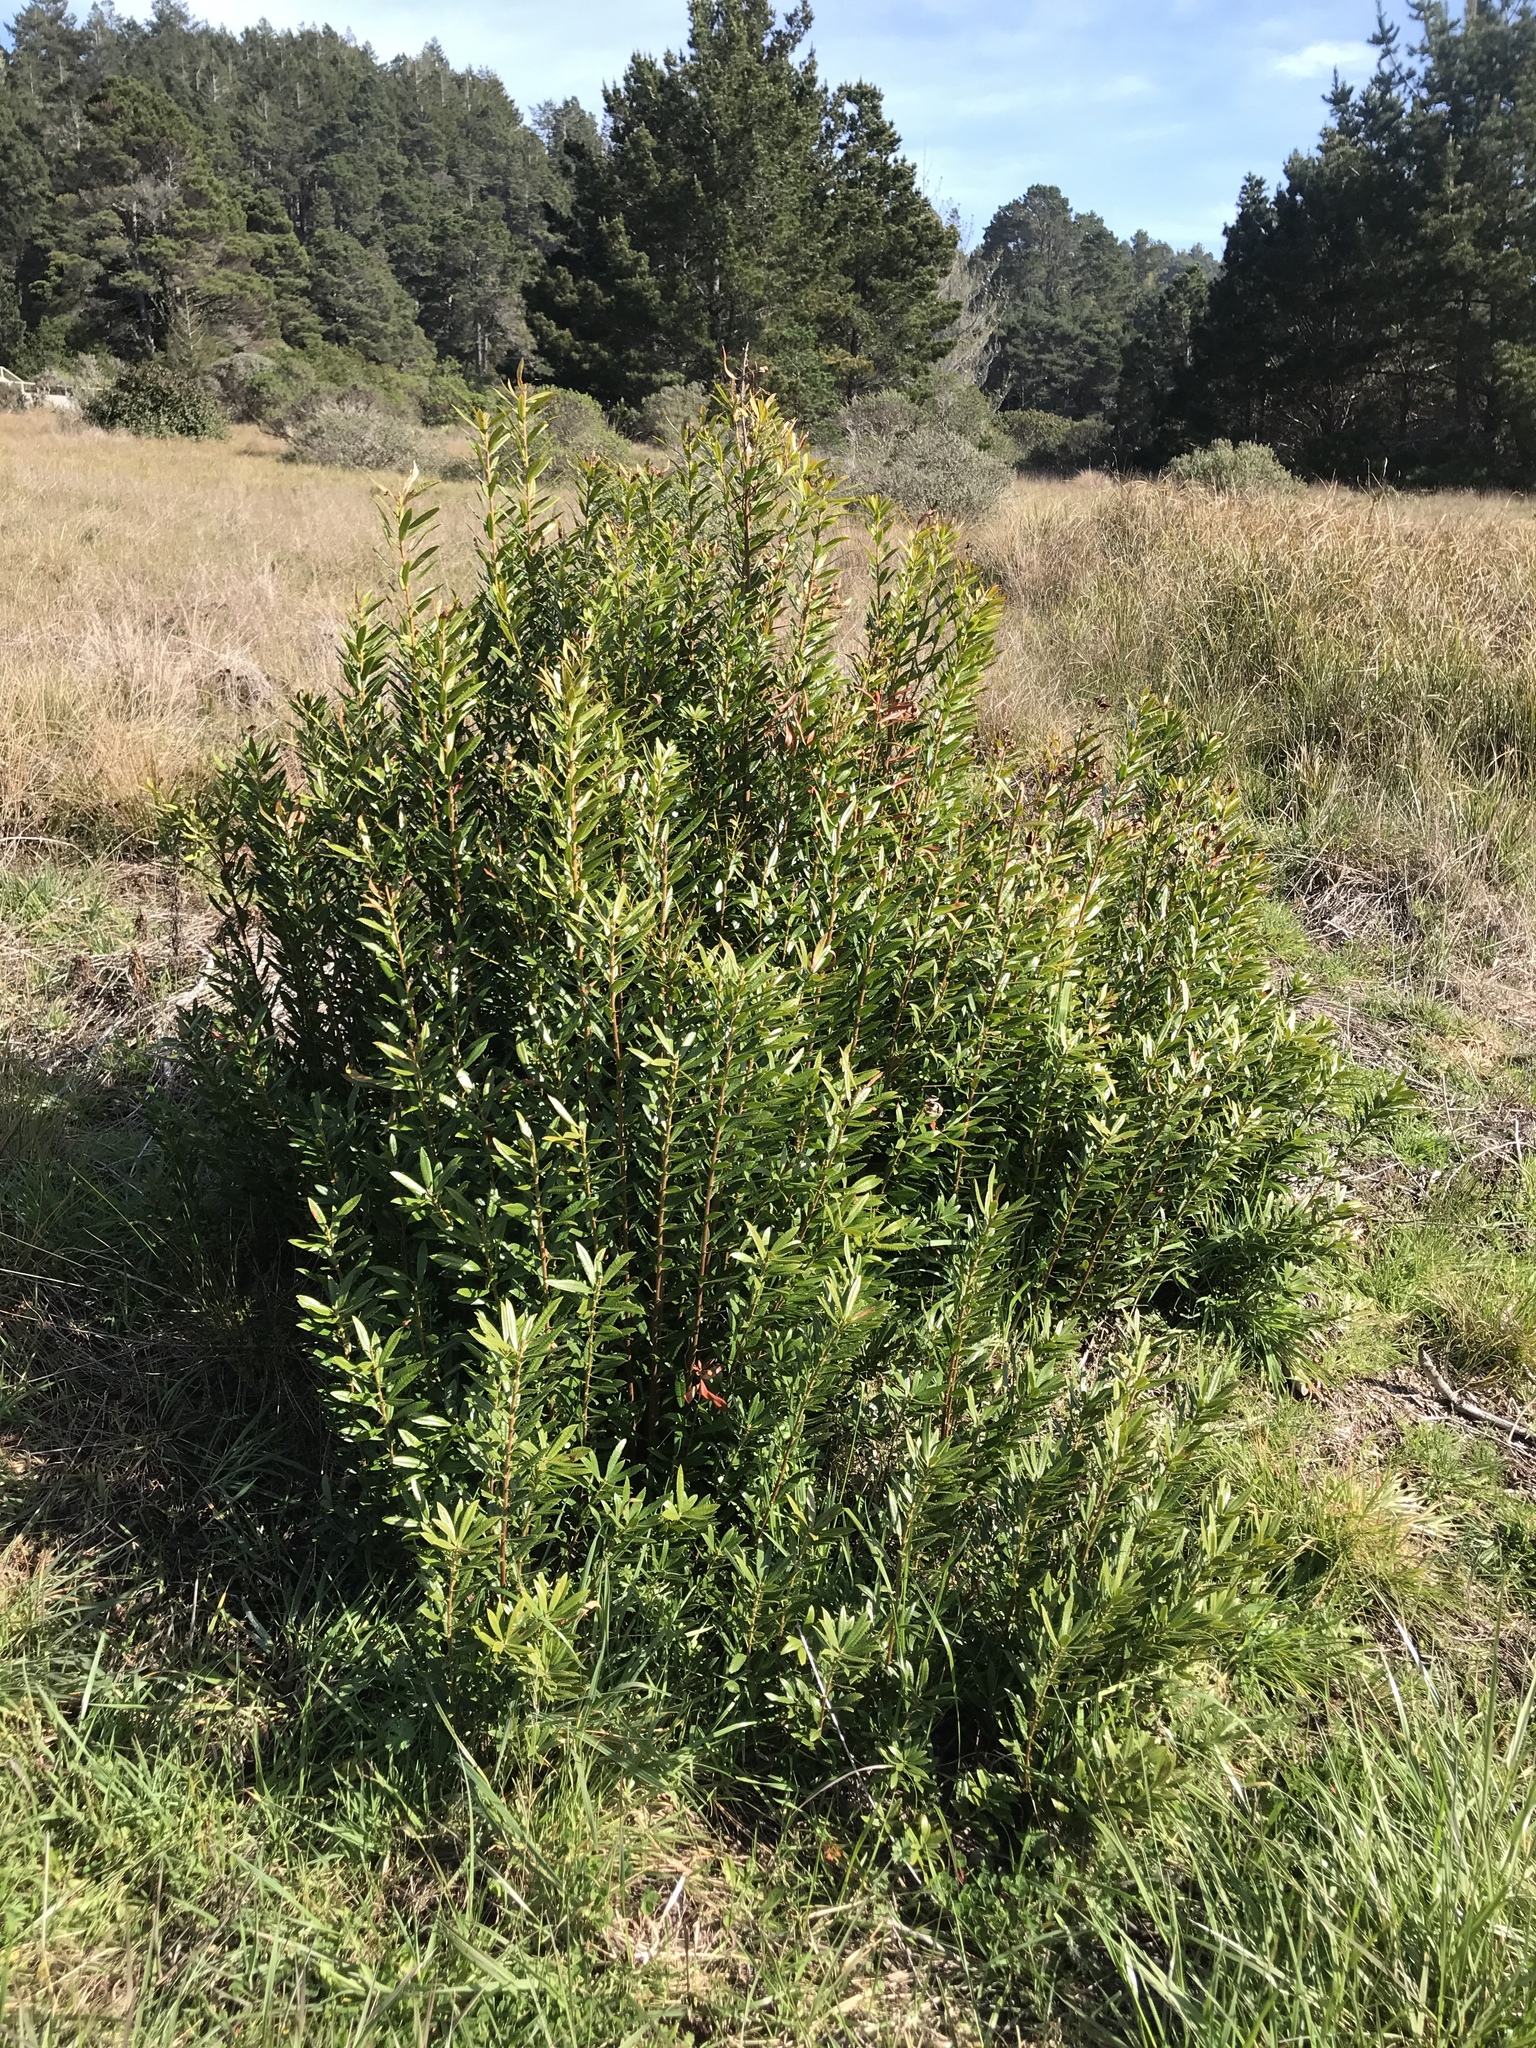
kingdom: Plantae
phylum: Tracheophyta
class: Magnoliopsida
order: Fagales
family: Myricaceae
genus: Morella
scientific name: Morella californica
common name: California wax-myrtle
